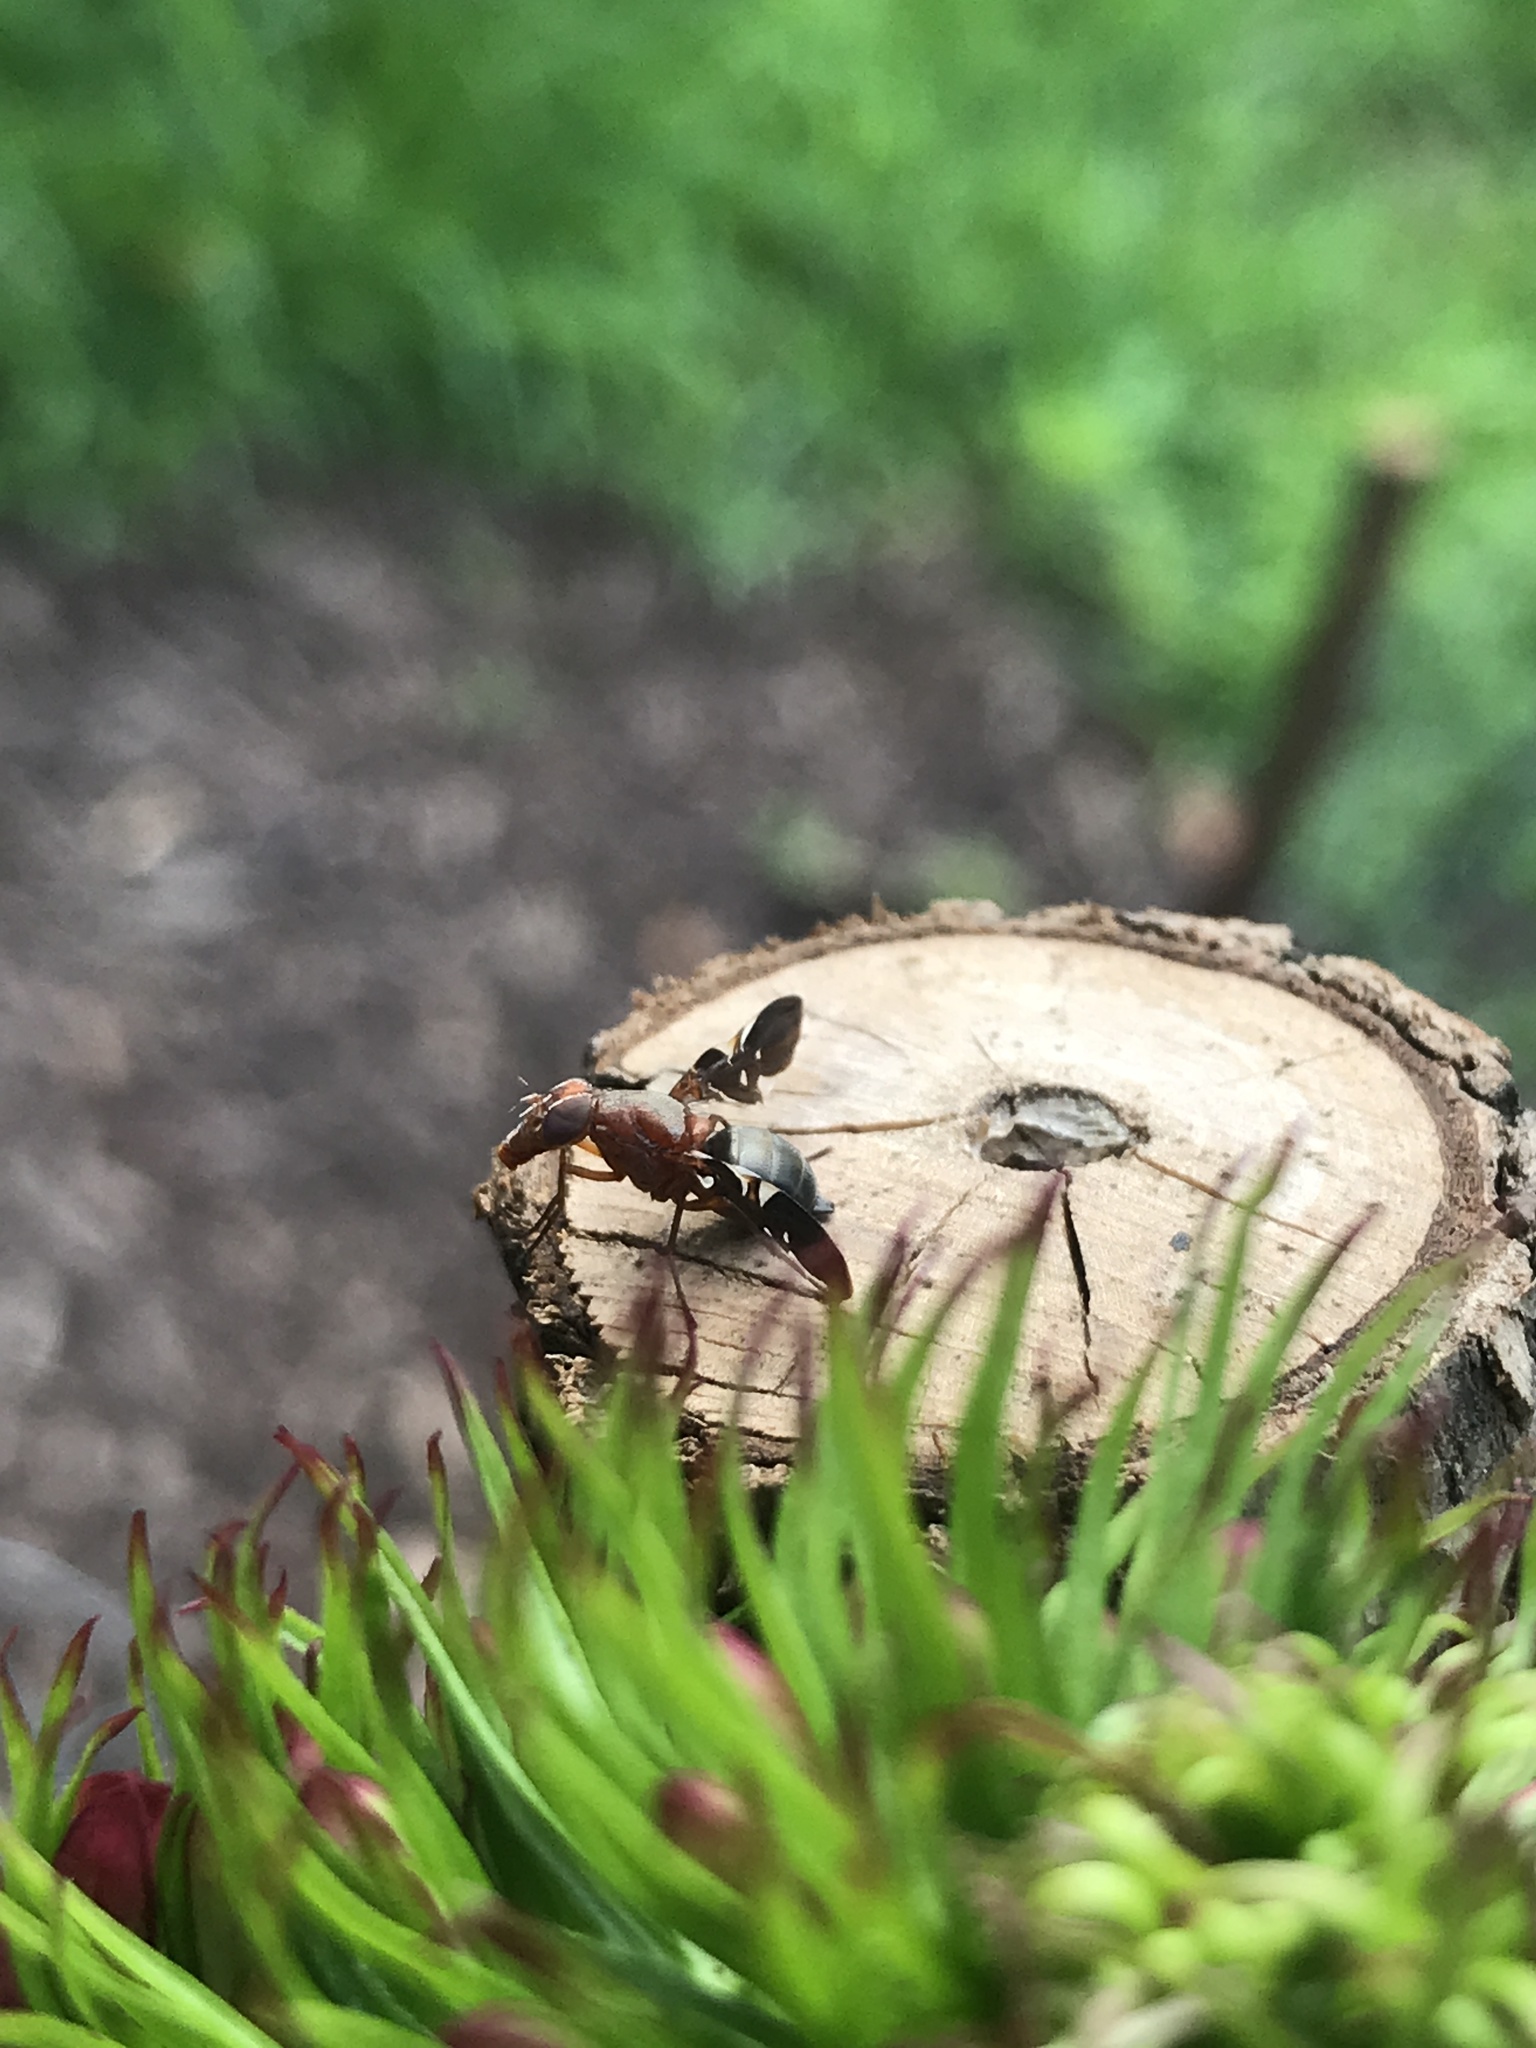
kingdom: Animalia
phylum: Arthropoda
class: Insecta
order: Diptera
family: Ulidiidae
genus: Delphinia
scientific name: Delphinia picta
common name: Common picture-winged fly
